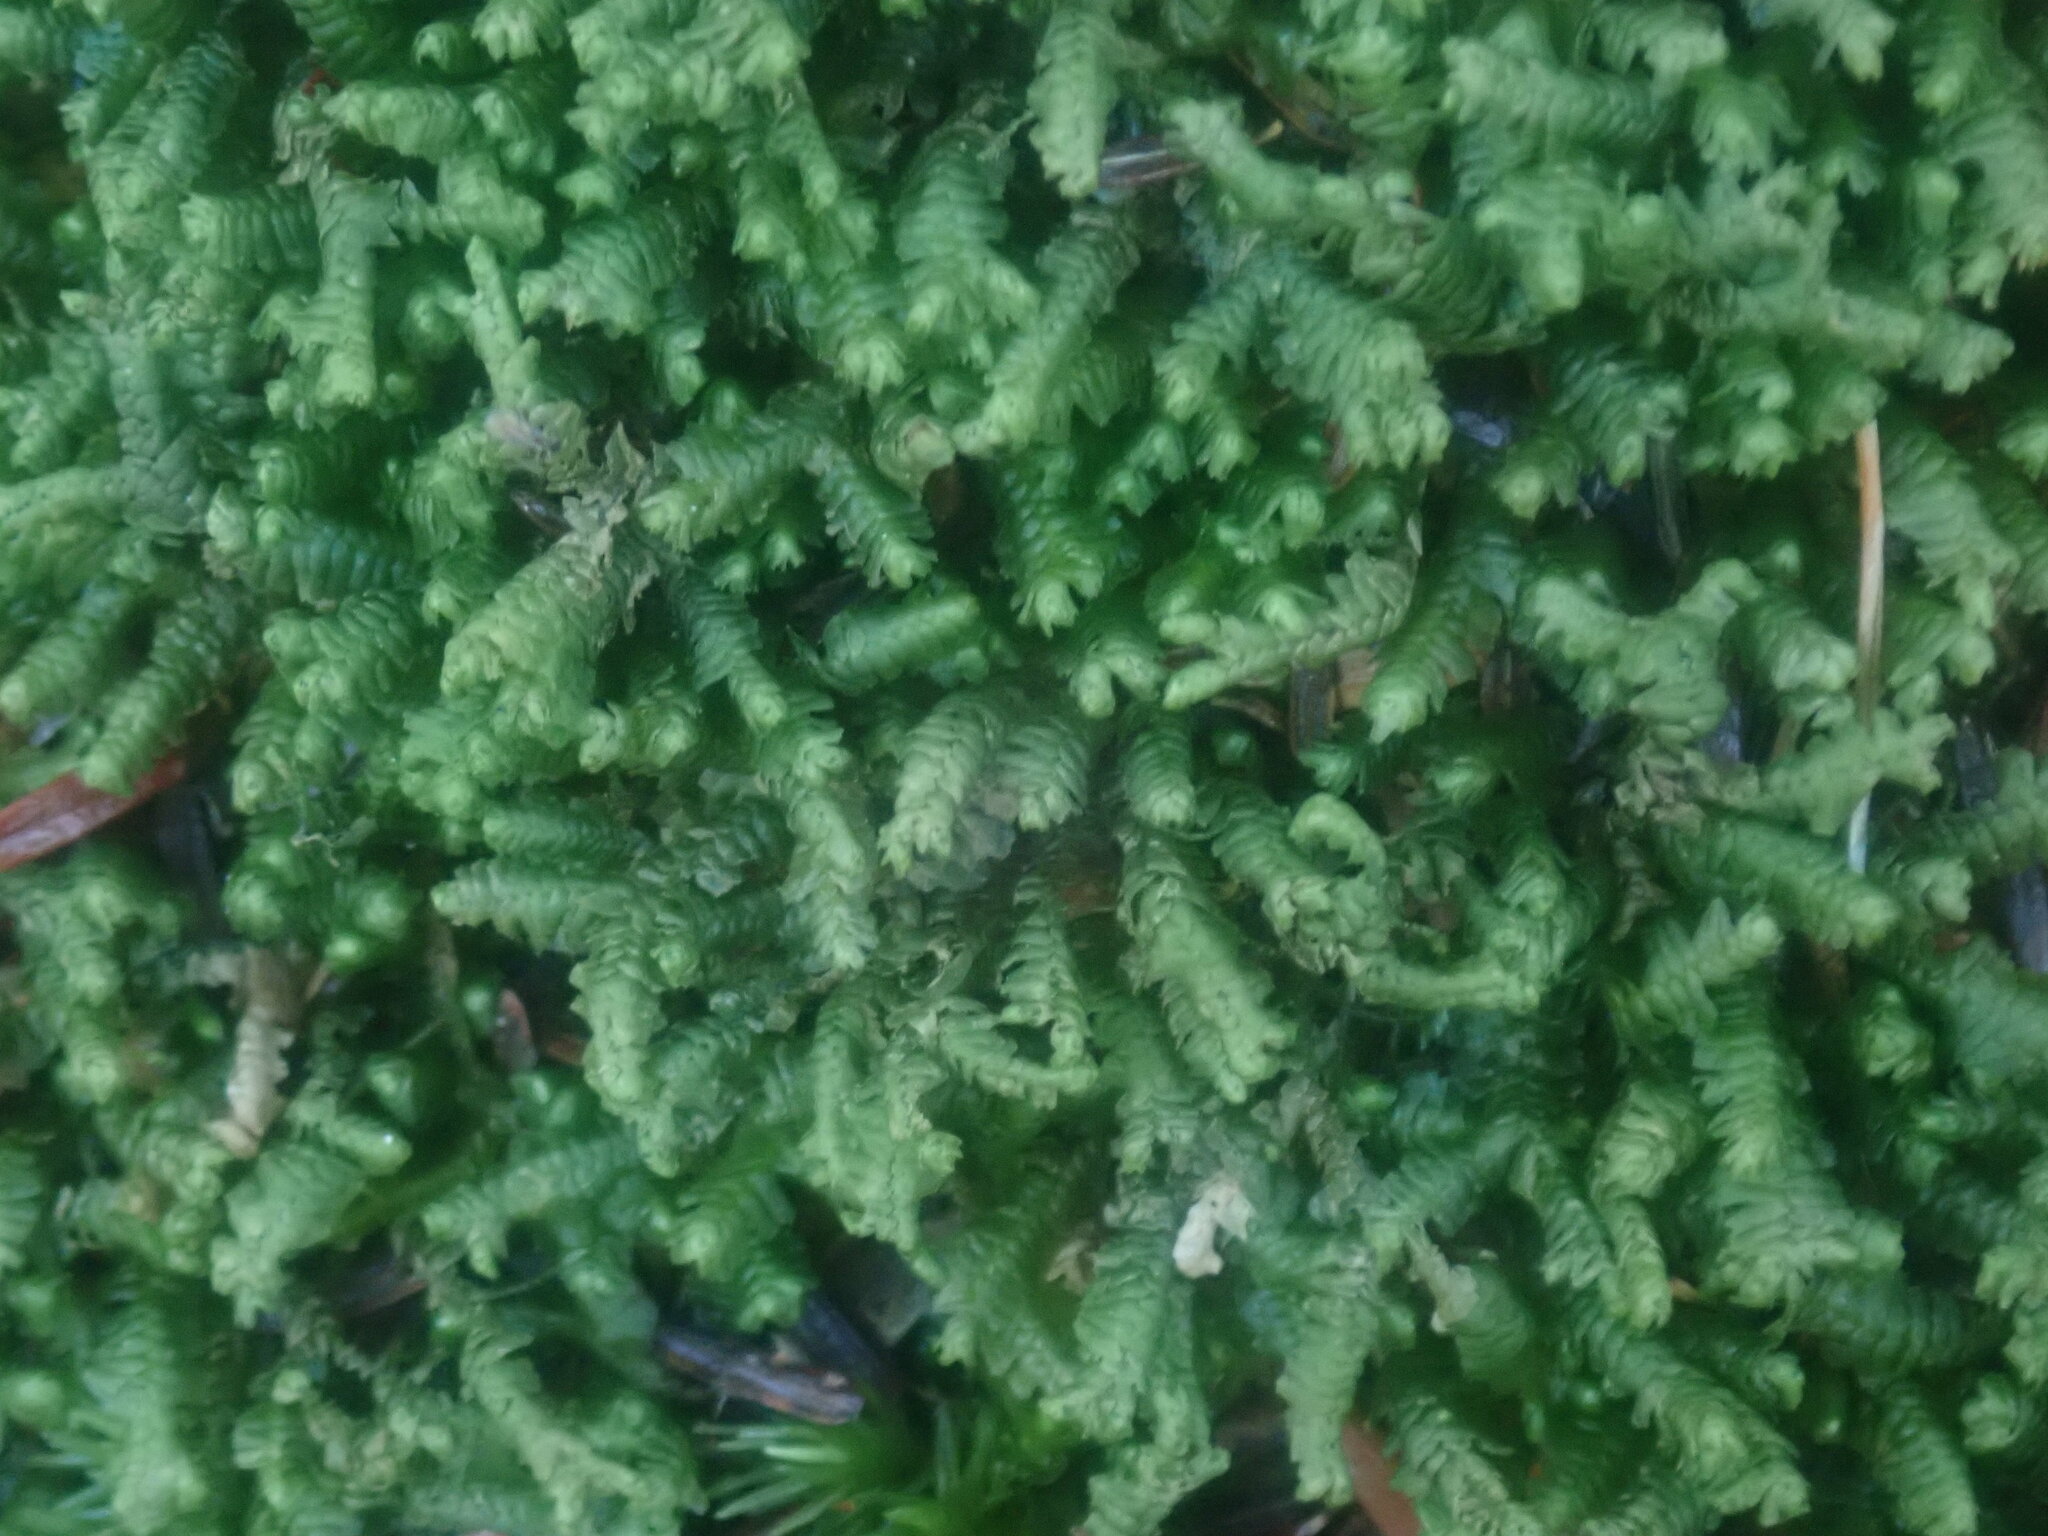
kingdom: Plantae
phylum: Marchantiophyta
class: Jungermanniopsida
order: Jungermanniales
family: Lepidoziaceae
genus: Bazzania
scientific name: Bazzania trilobata
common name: Three-lobed whipwort
